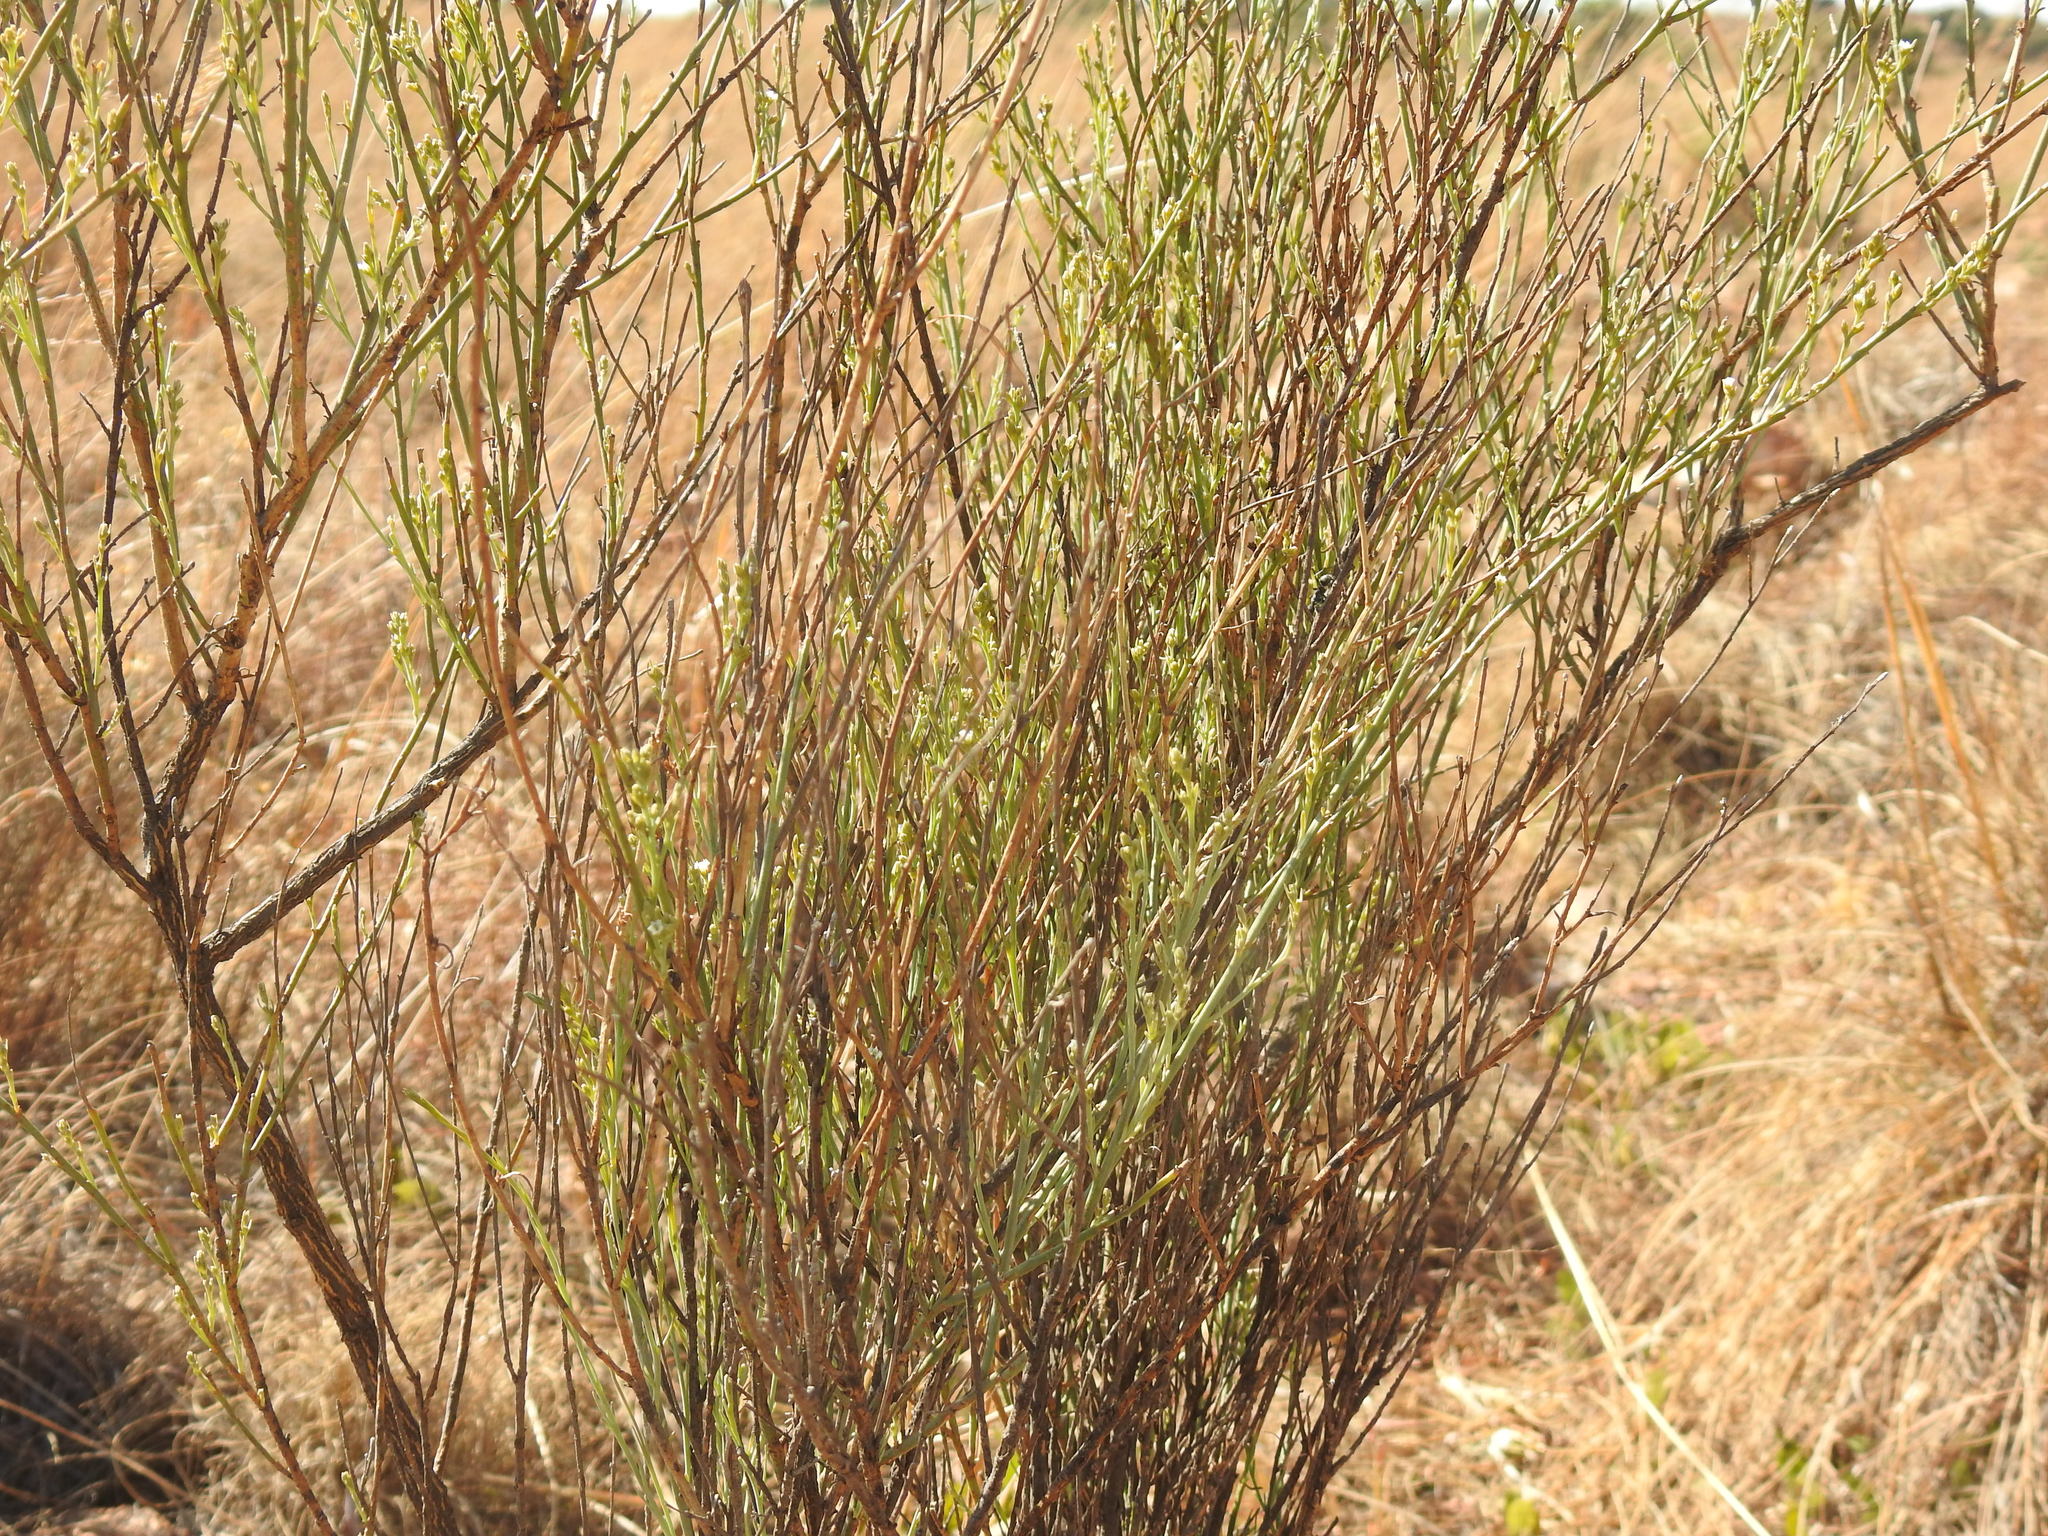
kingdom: Plantae
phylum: Tracheophyta
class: Magnoliopsida
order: Santalales
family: Thesiaceae
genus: Thesium
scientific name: Thesium procerum
